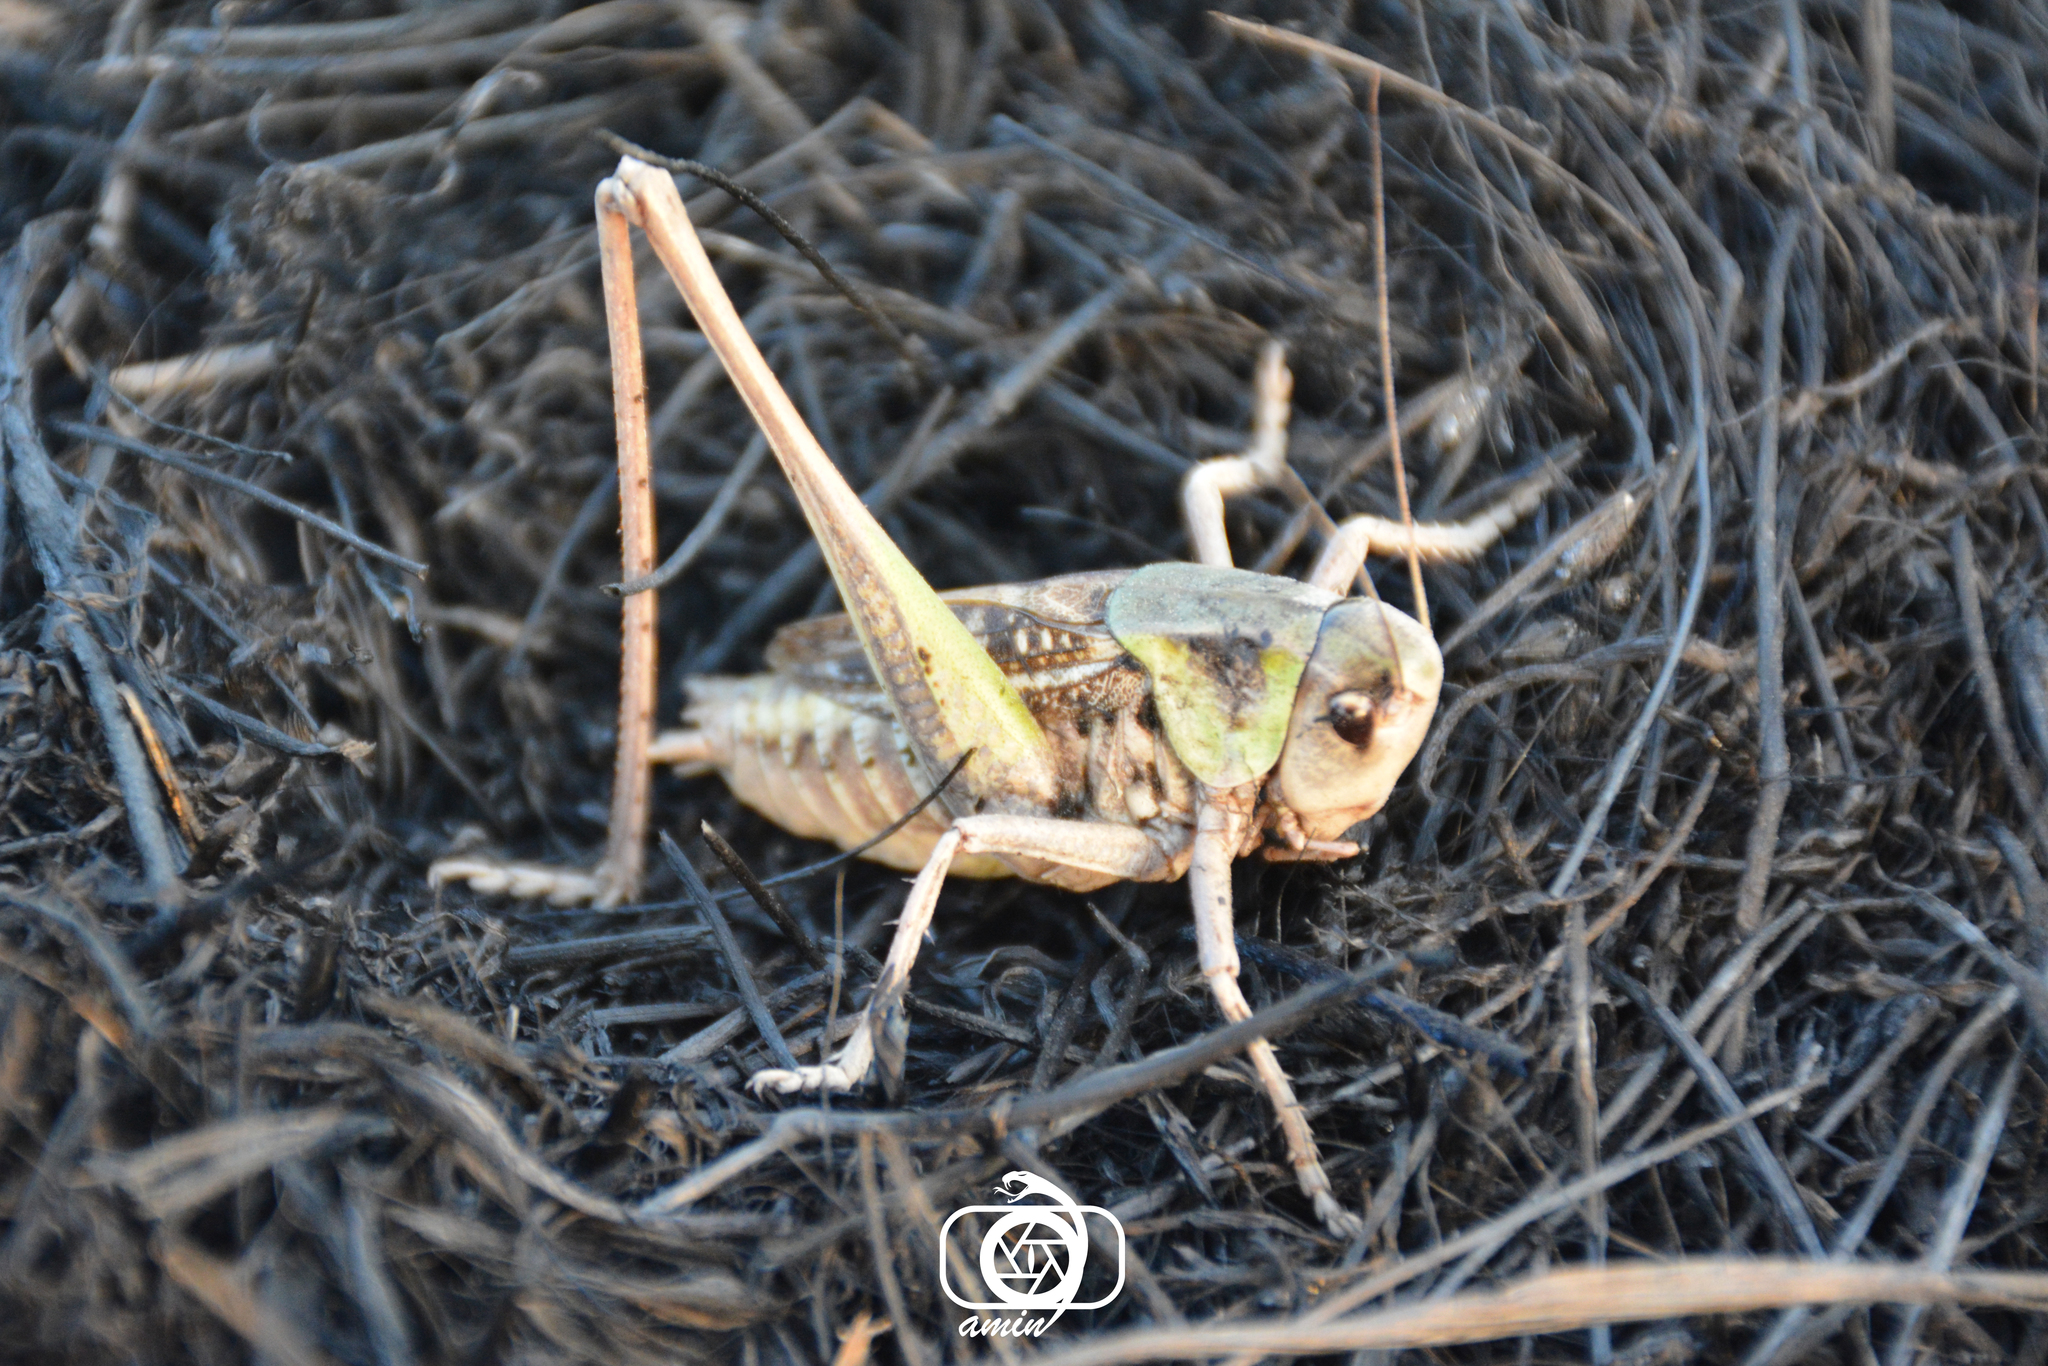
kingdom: Animalia
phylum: Arthropoda
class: Insecta
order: Orthoptera
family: Tettigoniidae
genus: Decticus
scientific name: Decticus annaelisae
